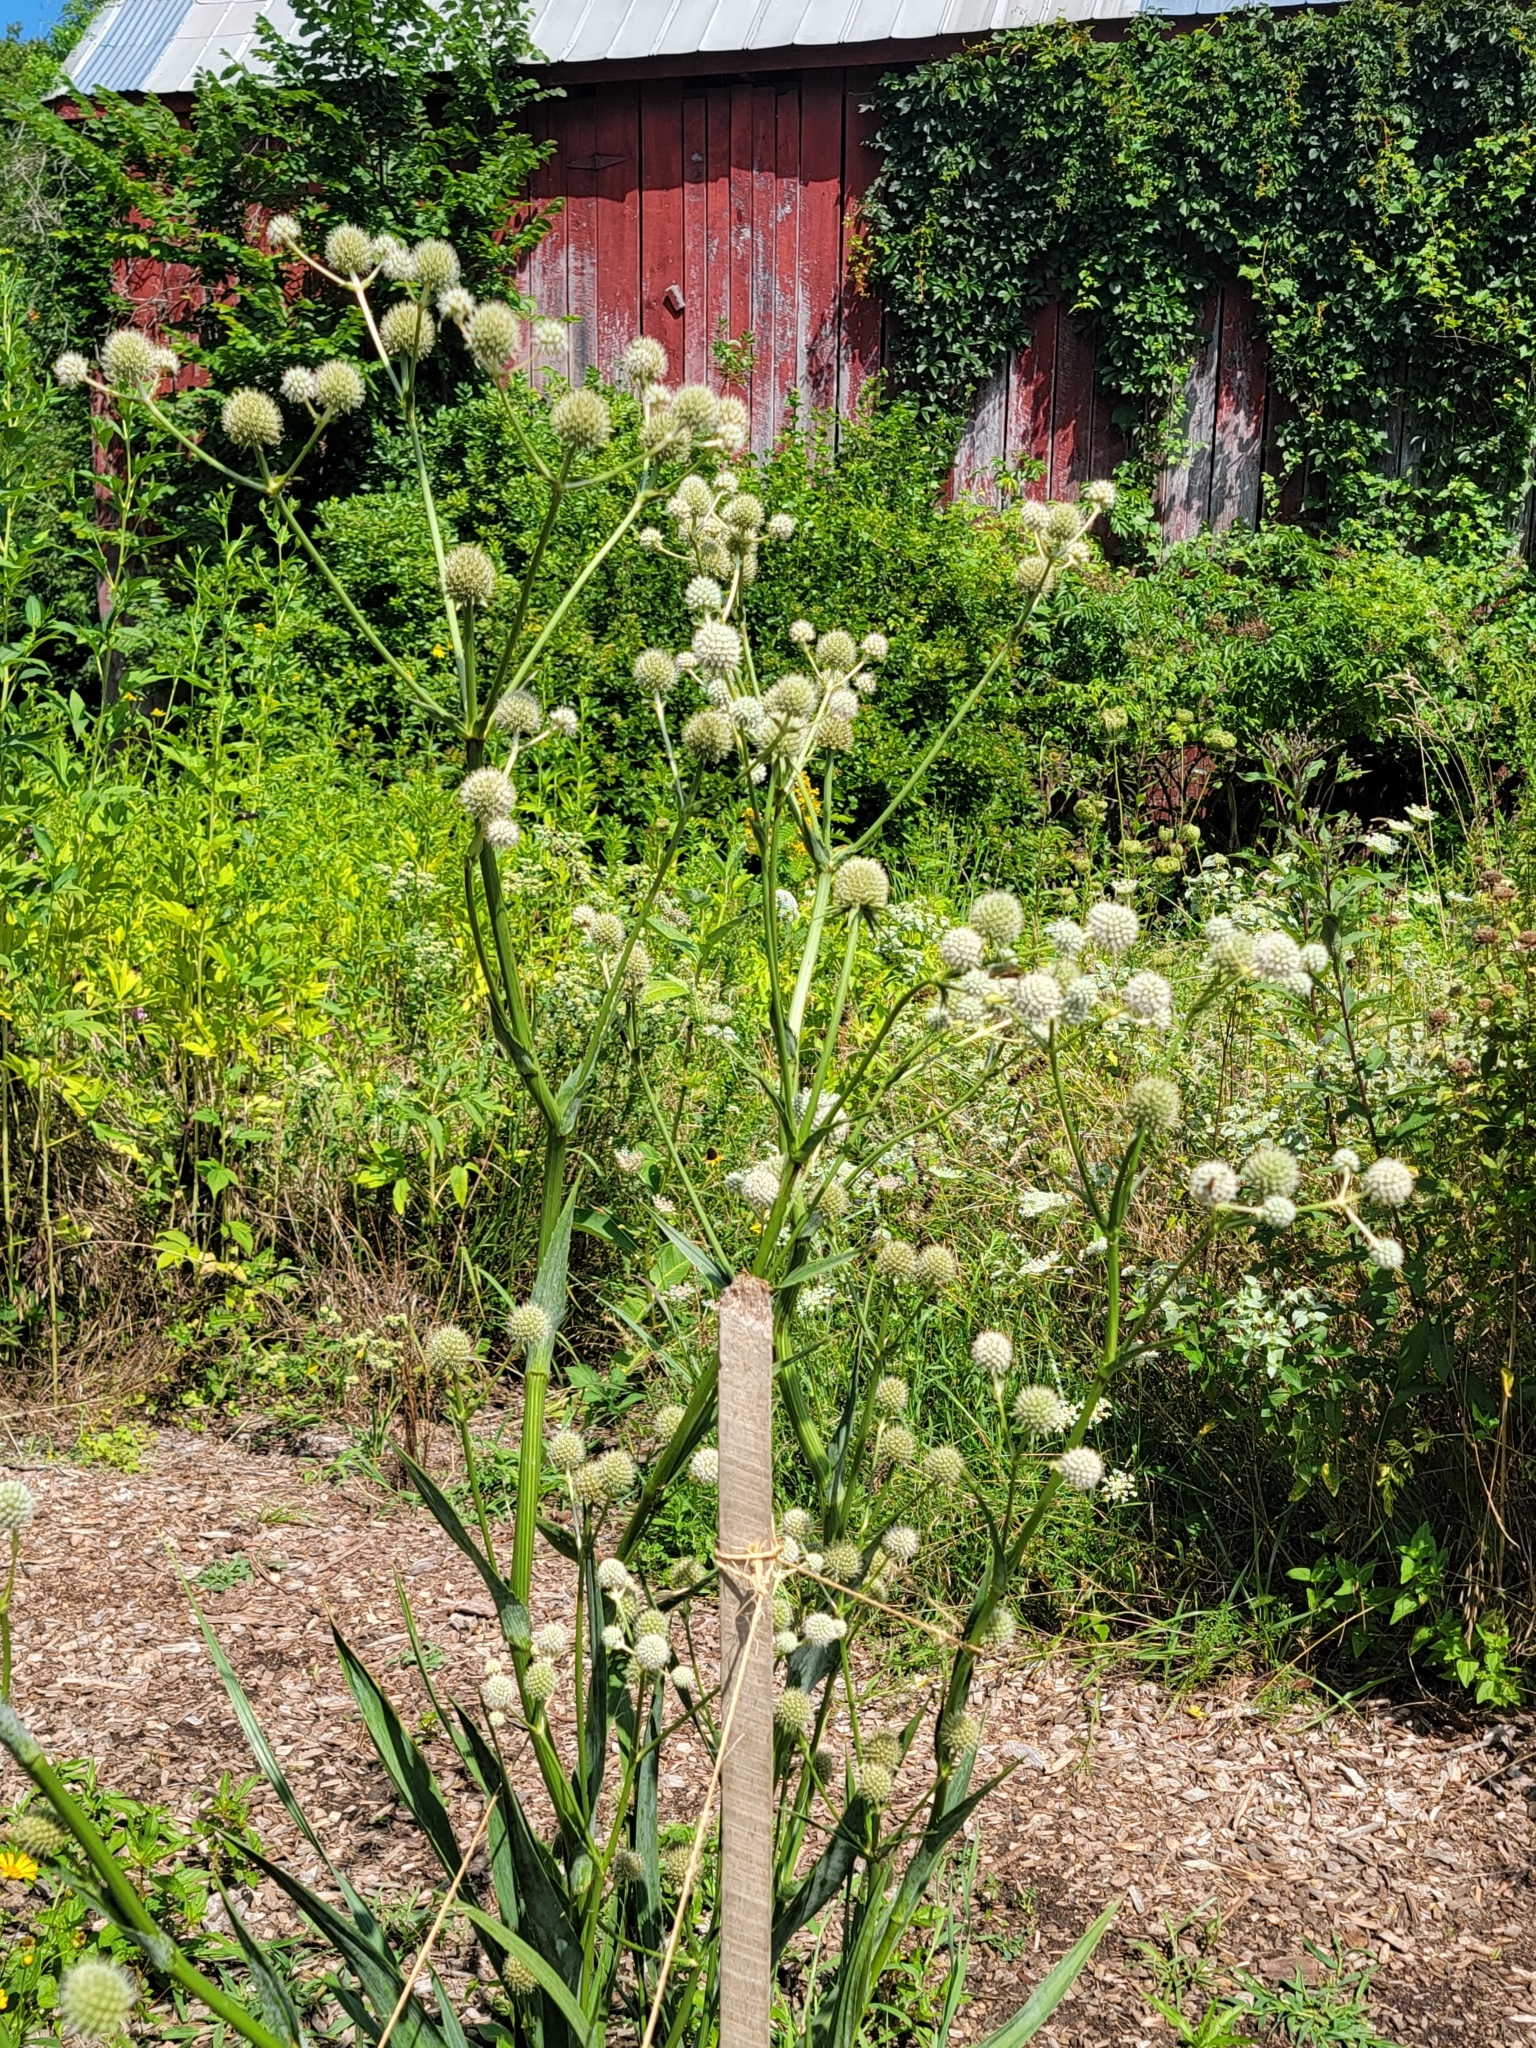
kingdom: Plantae
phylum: Tracheophyta
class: Magnoliopsida
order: Apiales
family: Apiaceae
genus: Eryngium
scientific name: Eryngium yuccifolium
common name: Button eryngo
